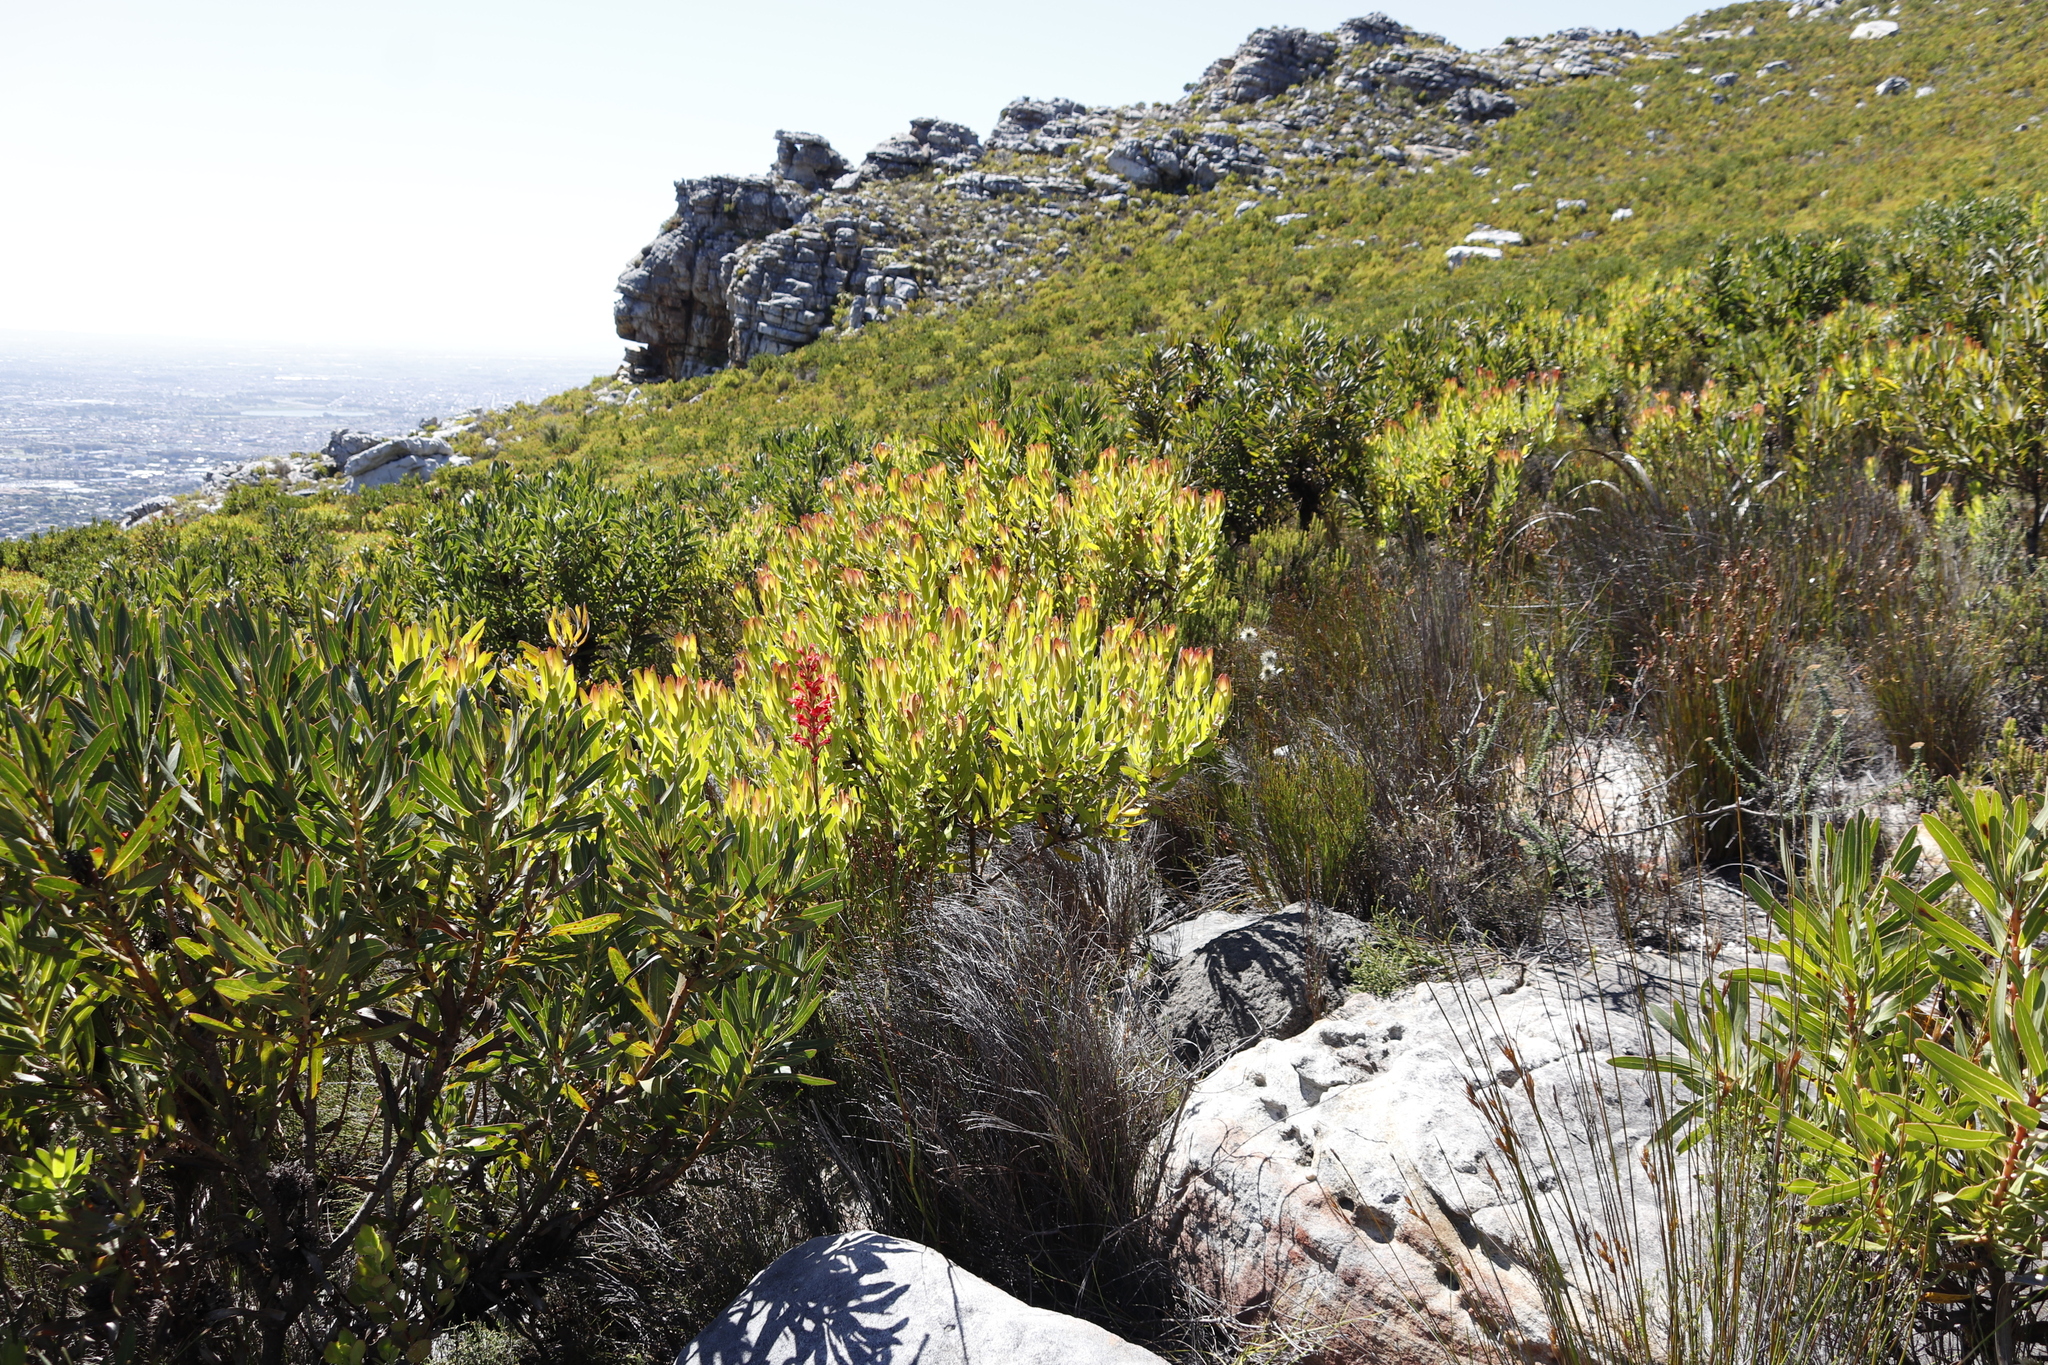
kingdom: Plantae
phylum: Tracheophyta
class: Magnoliopsida
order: Proteales
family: Proteaceae
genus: Leucadendron
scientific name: Leucadendron laureolum
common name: Golden sunshinebush
